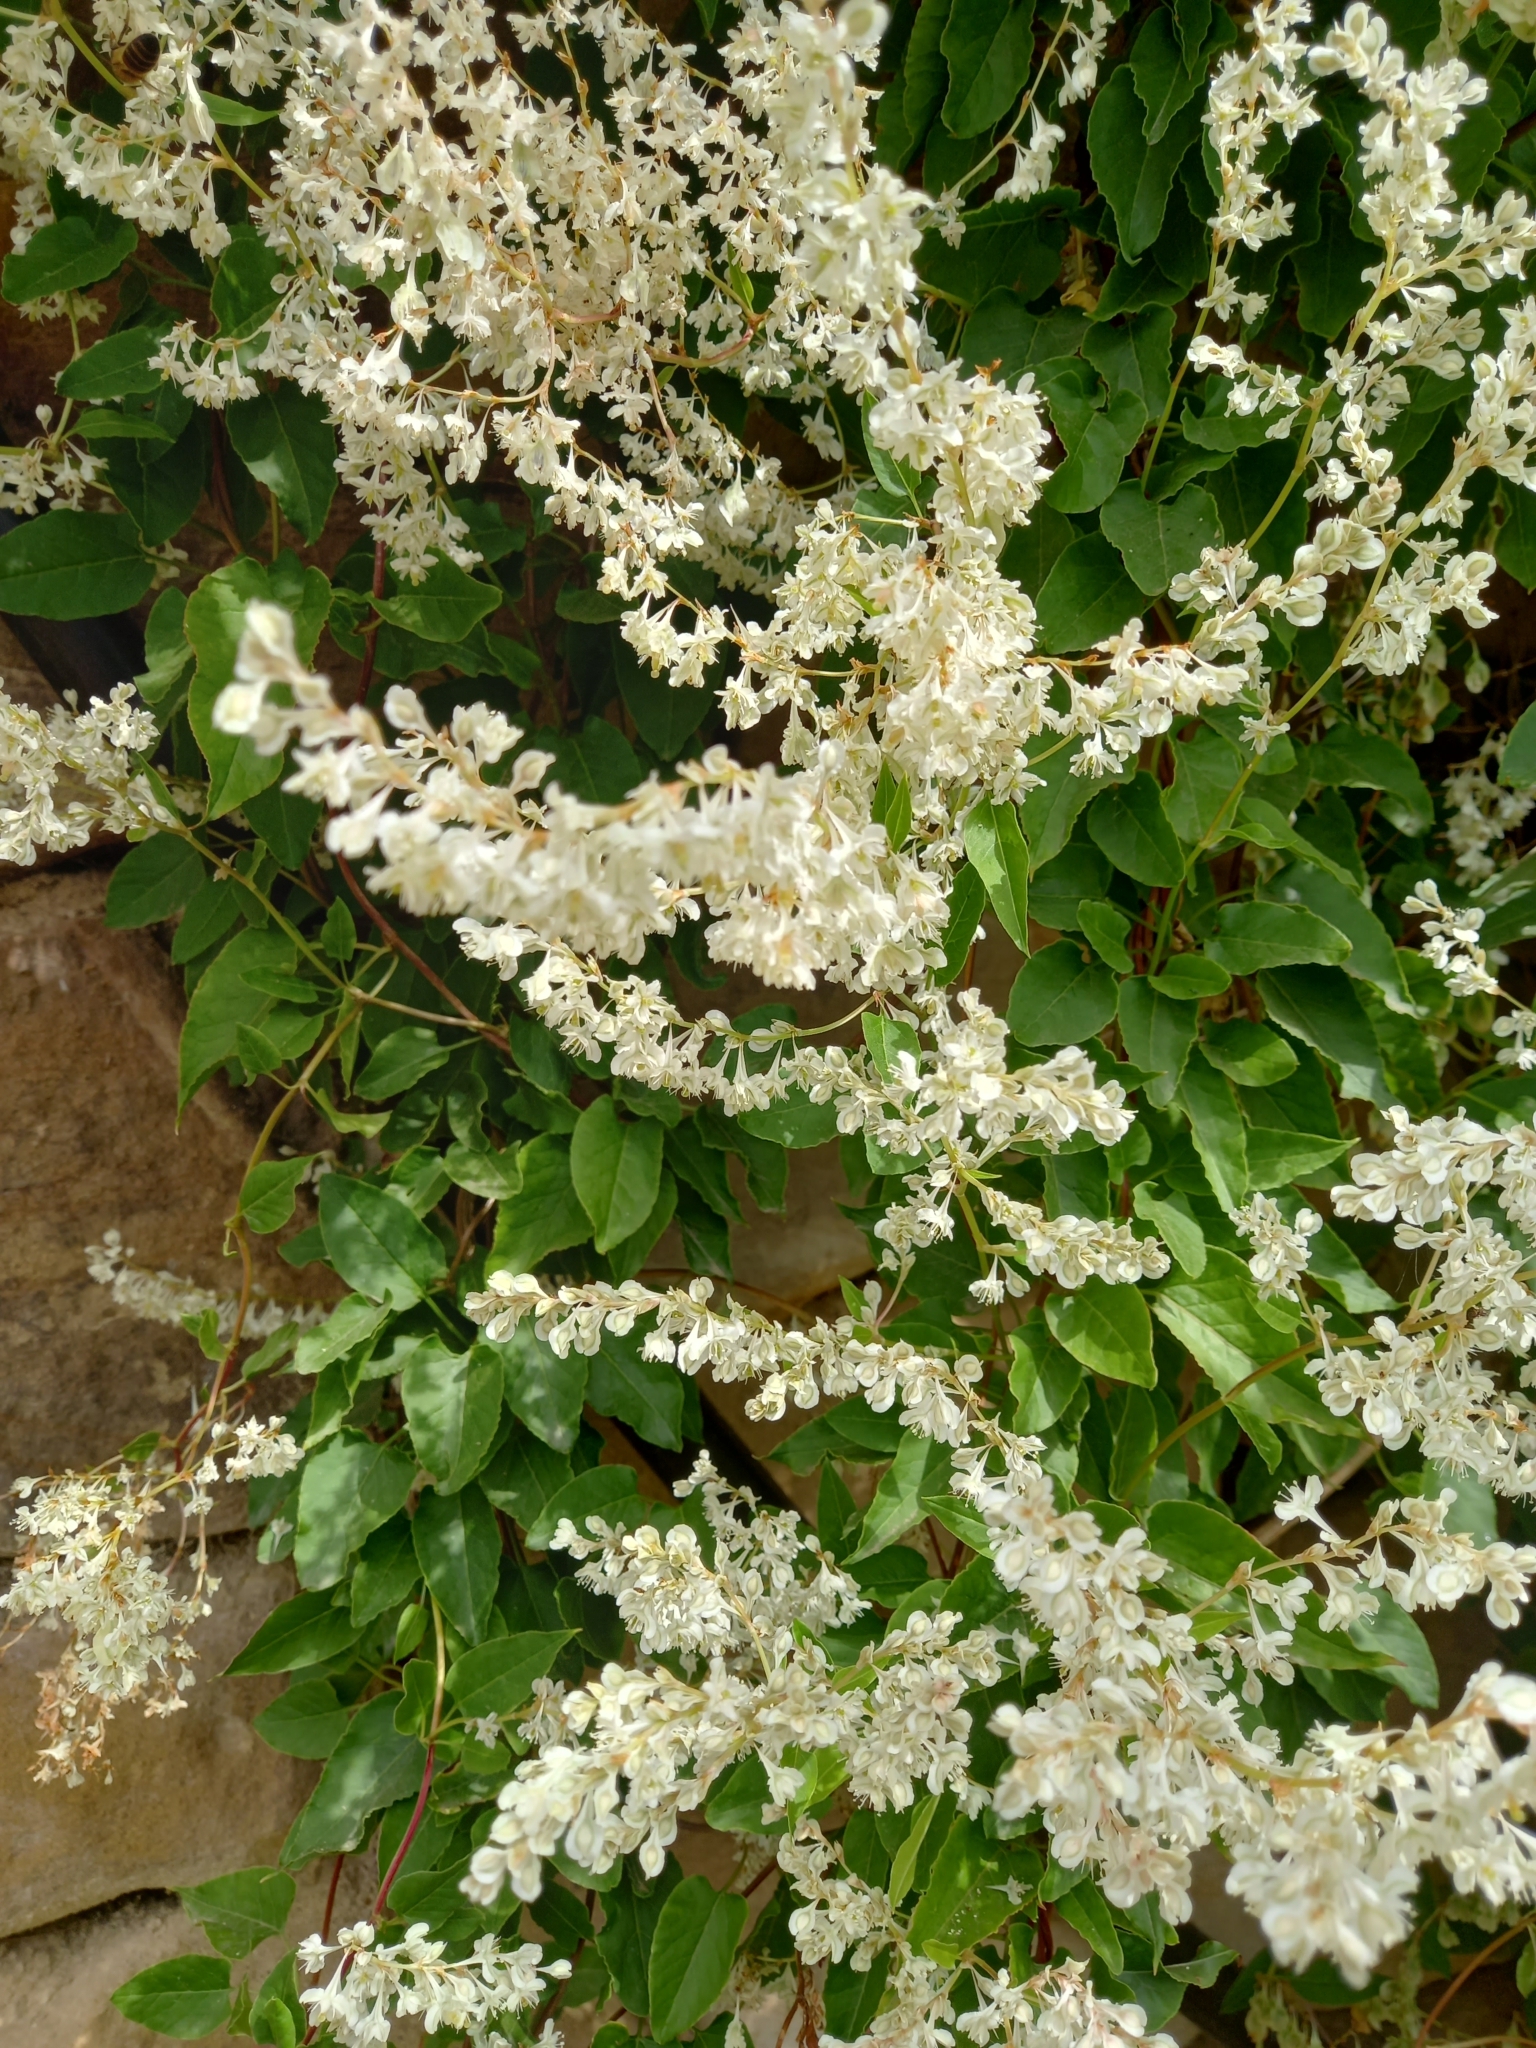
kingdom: Plantae
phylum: Tracheophyta
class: Magnoliopsida
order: Caryophyllales
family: Polygonaceae
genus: Fallopia
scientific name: Fallopia baldschuanica
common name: Russian-vine
